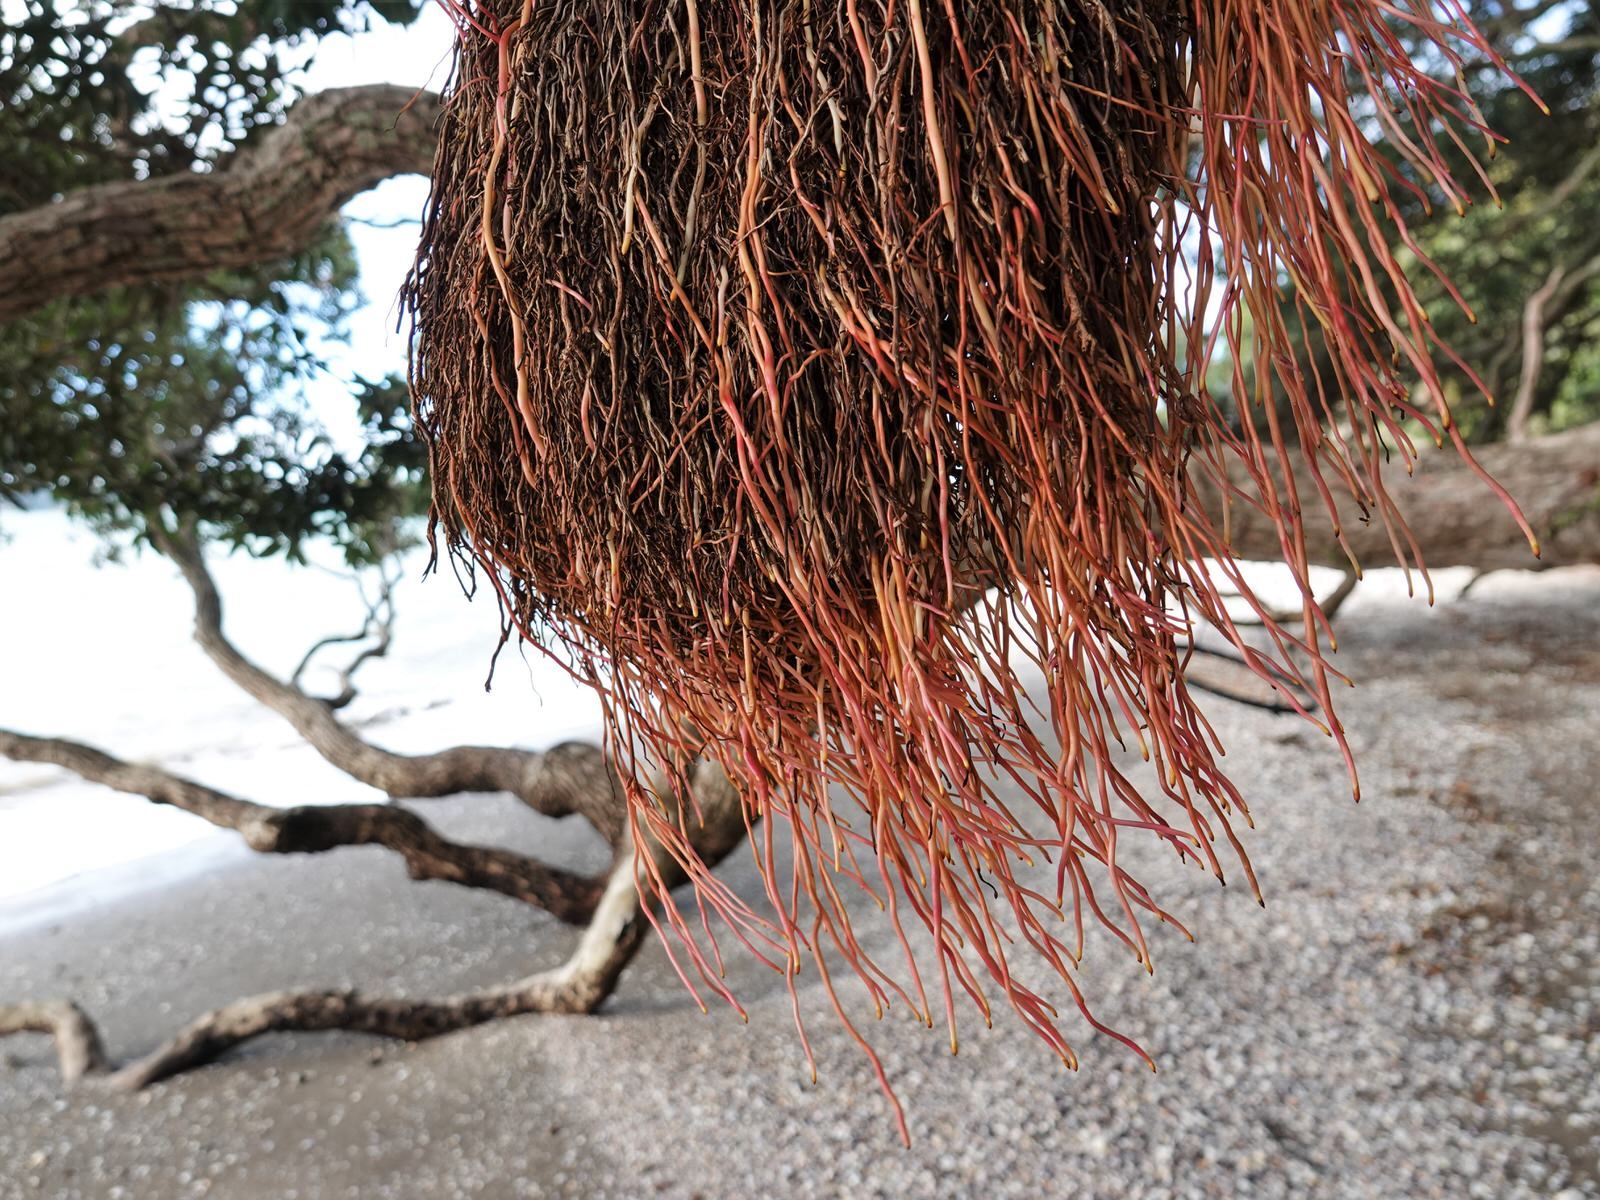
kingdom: Plantae
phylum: Tracheophyta
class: Magnoliopsida
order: Myrtales
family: Myrtaceae
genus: Metrosideros
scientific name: Metrosideros excelsa
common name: New zealand christmastree
